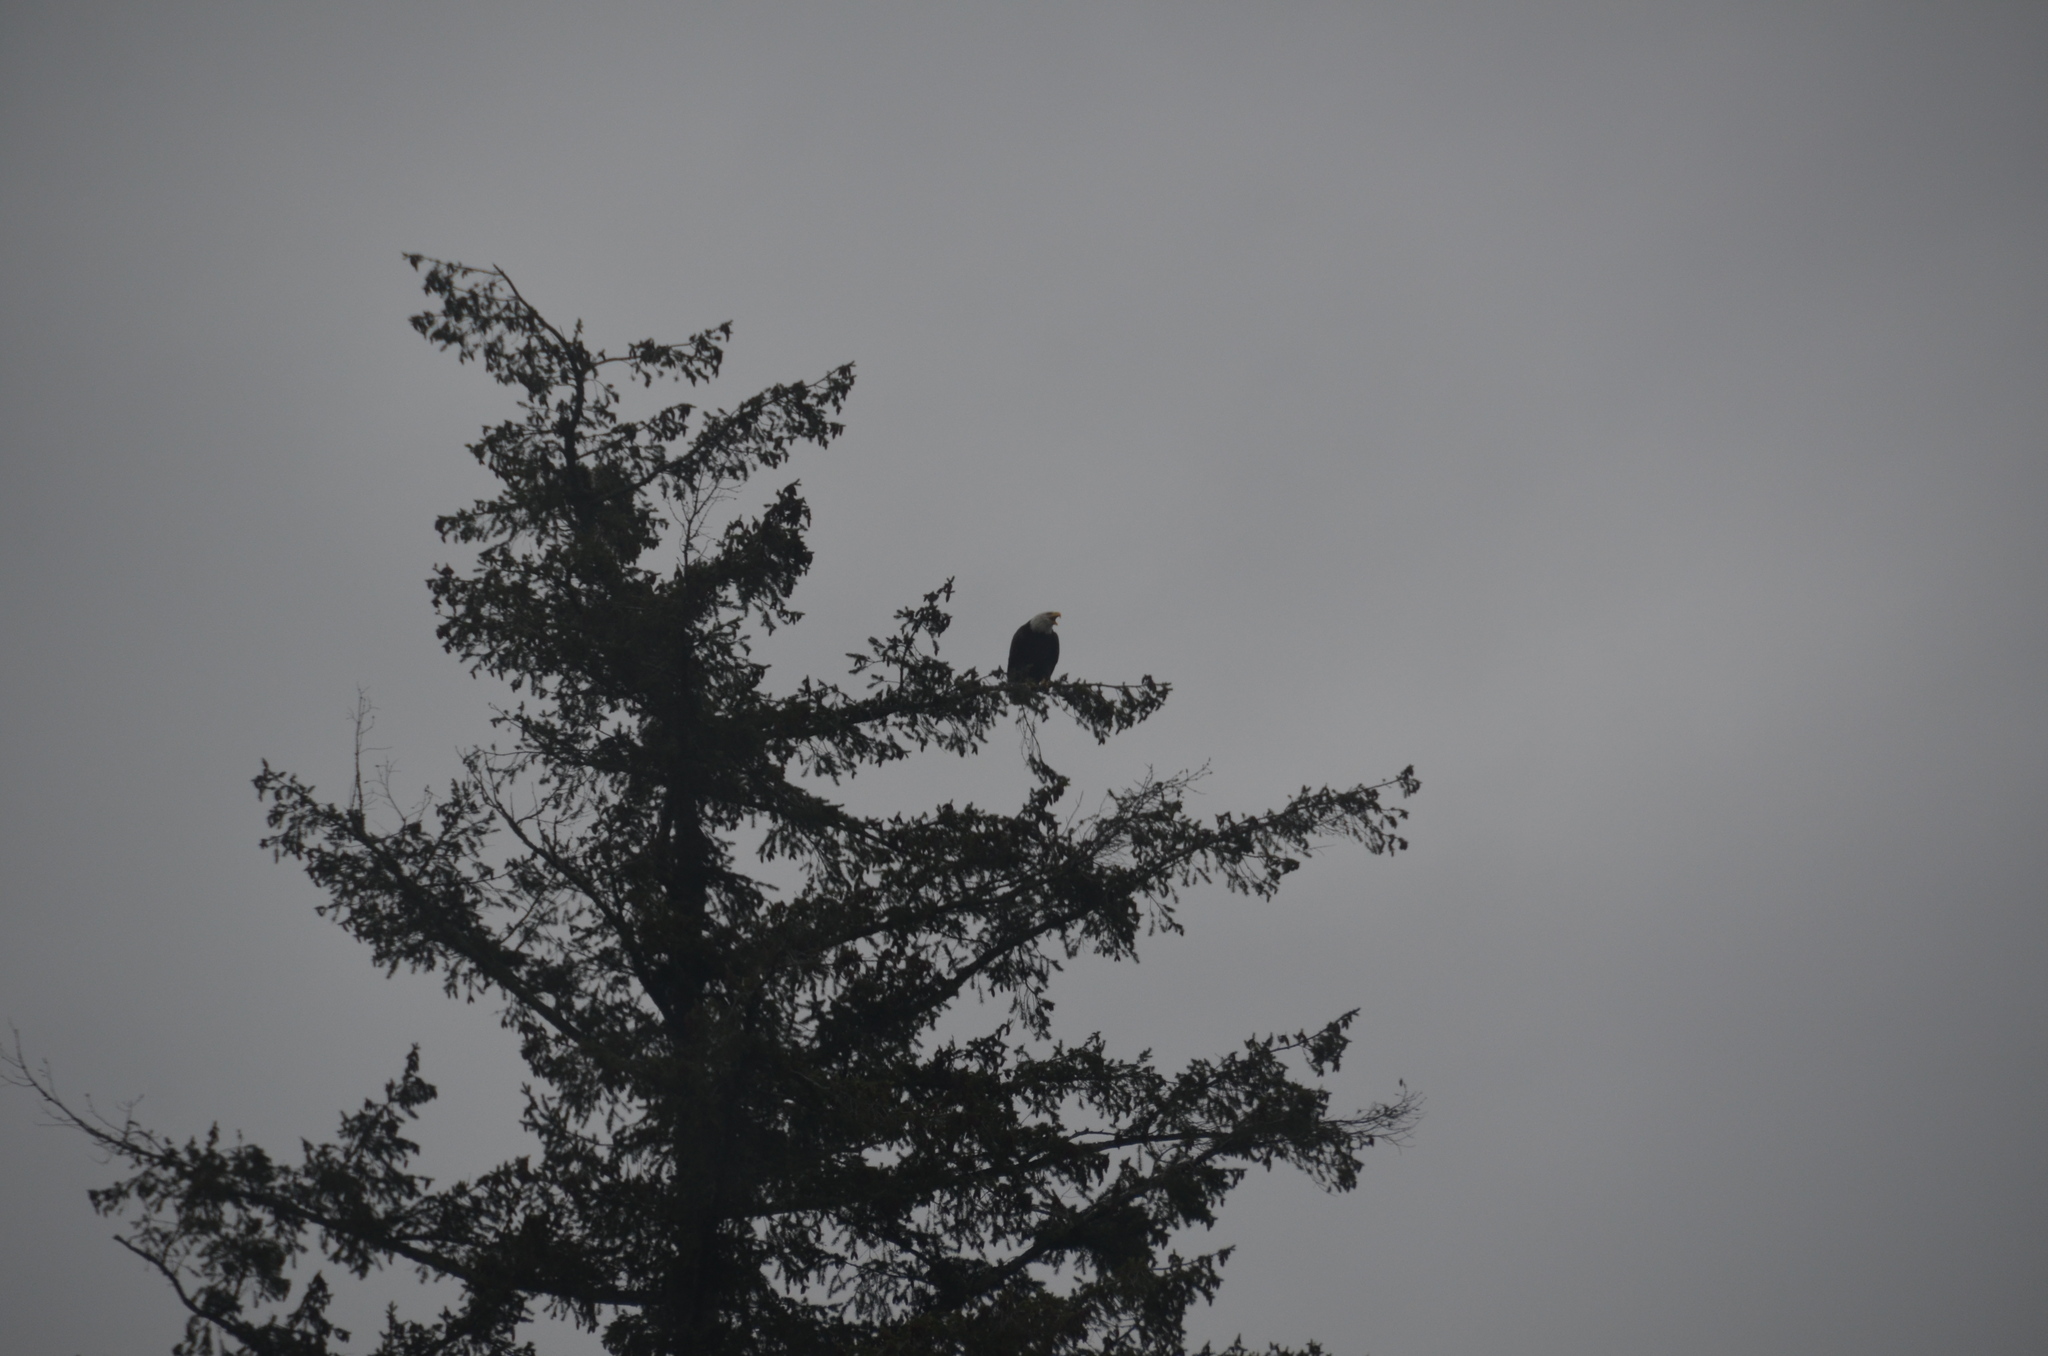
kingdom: Animalia
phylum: Chordata
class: Aves
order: Accipitriformes
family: Accipitridae
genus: Haliaeetus
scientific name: Haliaeetus leucocephalus
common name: Bald eagle
